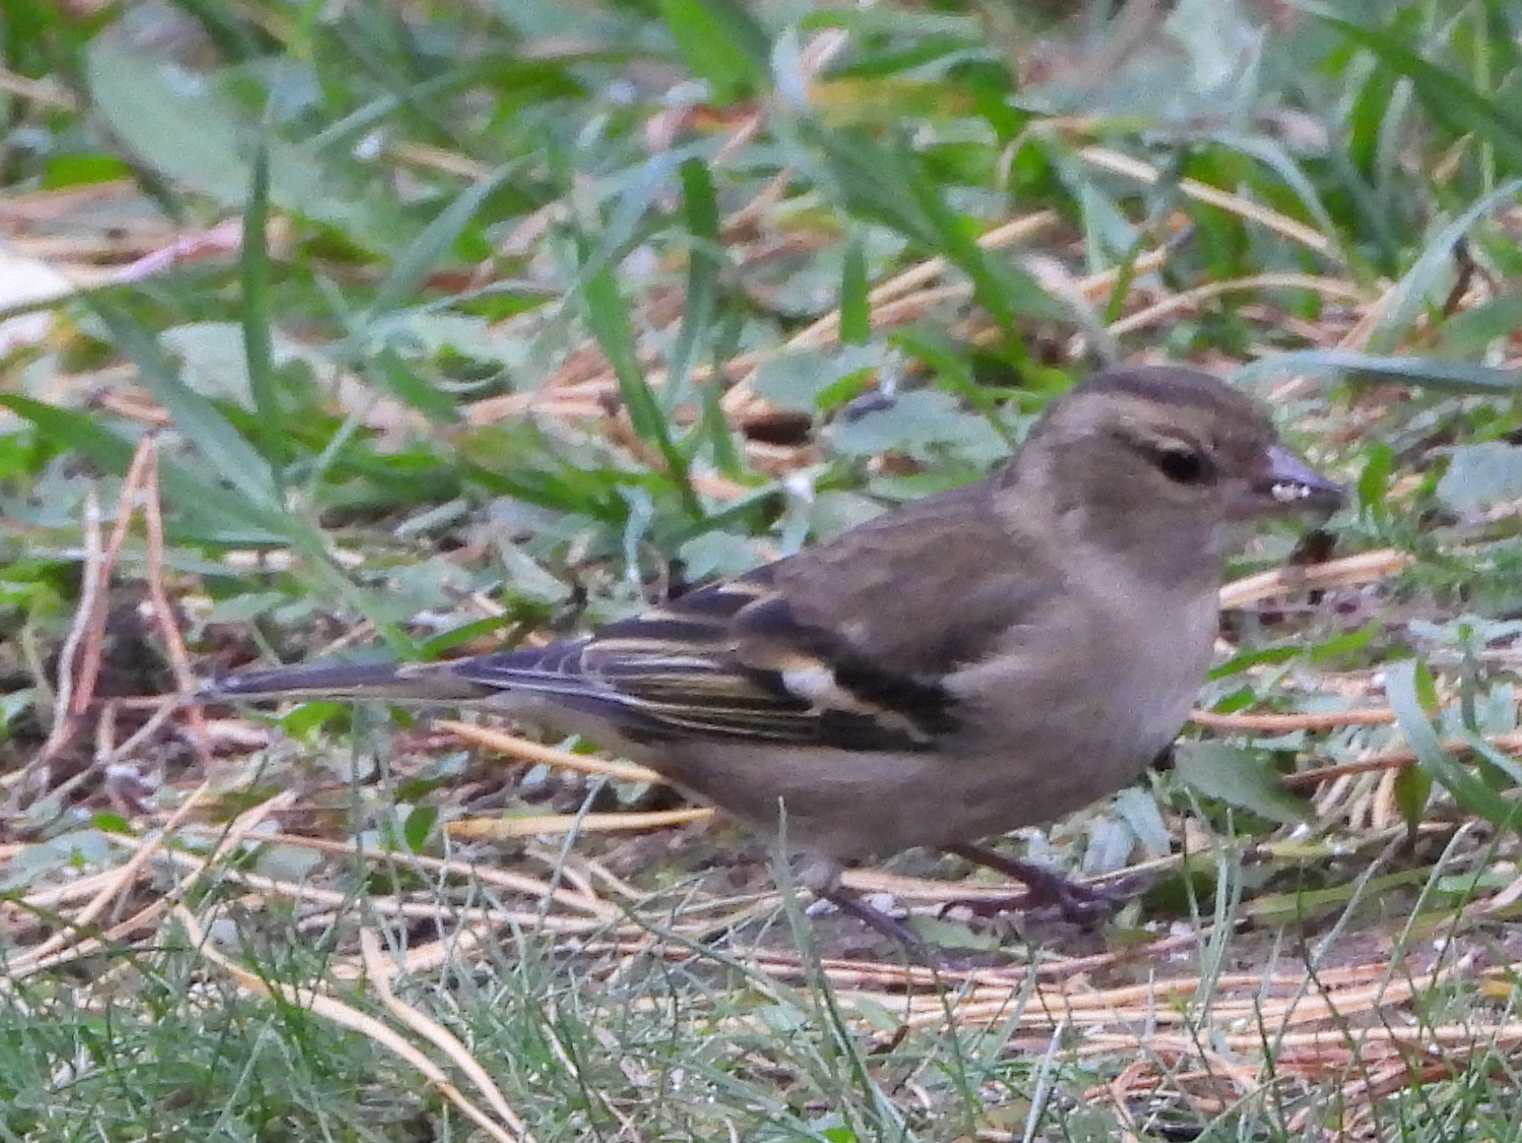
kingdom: Animalia
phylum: Chordata
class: Aves
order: Passeriformes
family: Fringillidae
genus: Fringilla
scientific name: Fringilla coelebs
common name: Common chaffinch
